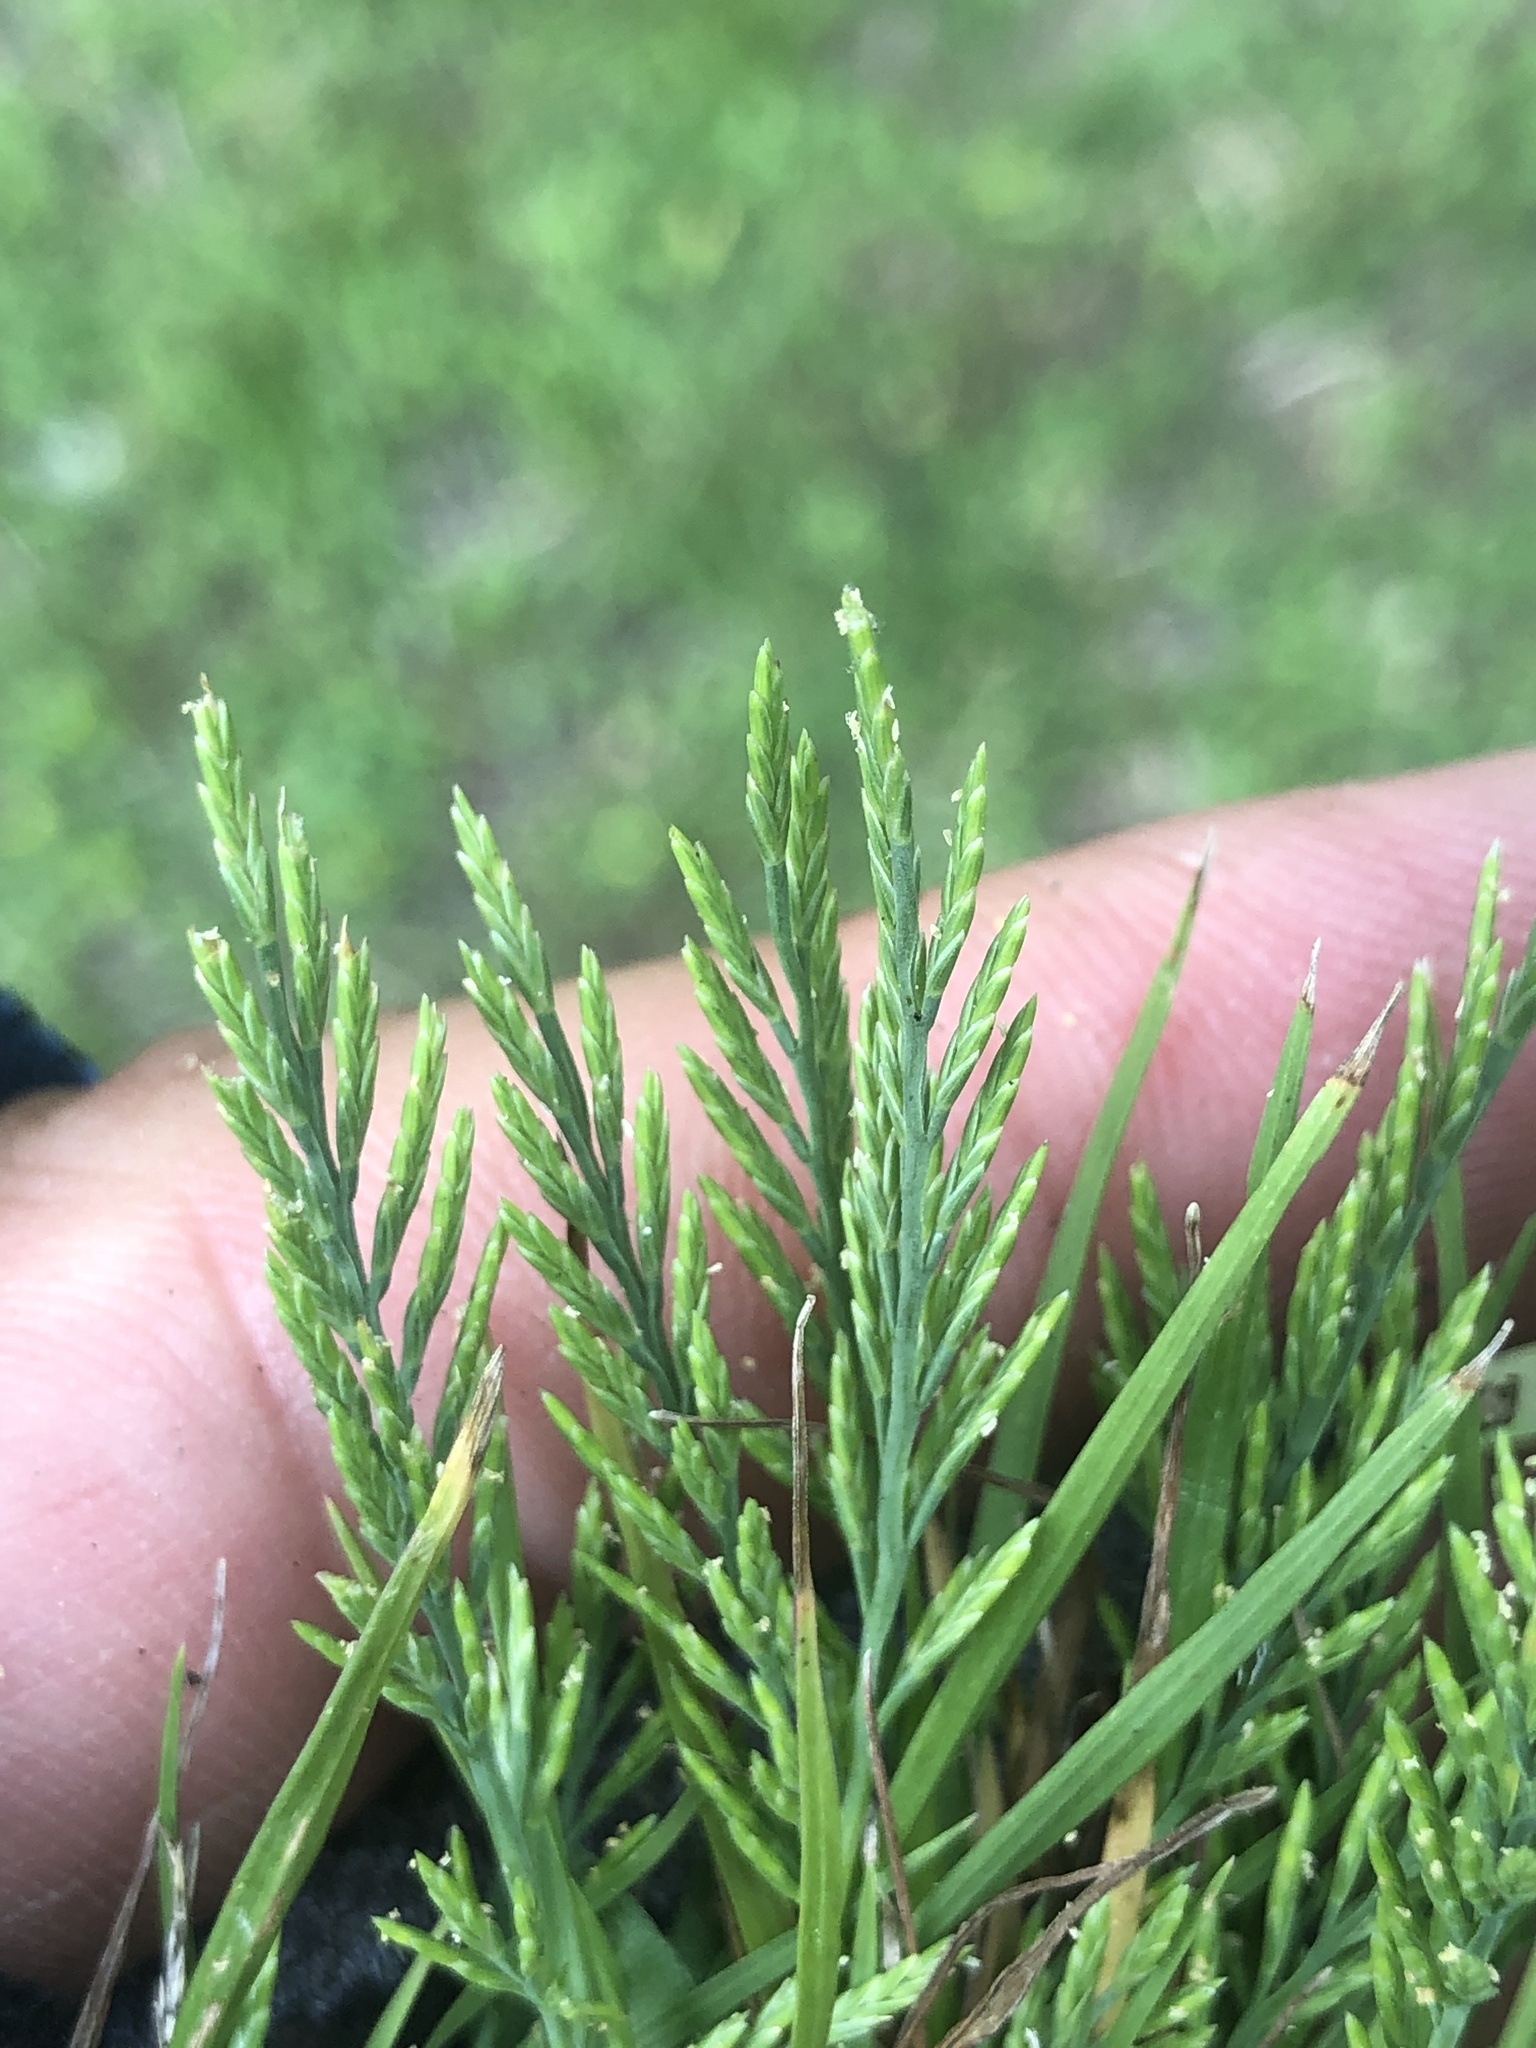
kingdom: Plantae
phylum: Tracheophyta
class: Liliopsida
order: Poales
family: Poaceae
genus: Catapodium
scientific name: Catapodium rigidum
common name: Fern-grass
